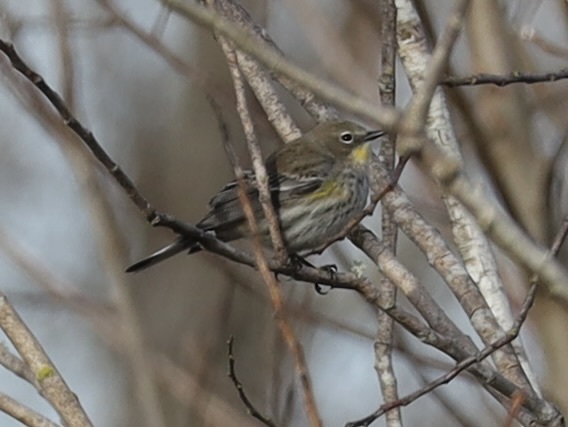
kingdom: Animalia
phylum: Chordata
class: Aves
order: Passeriformes
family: Parulidae
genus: Setophaga
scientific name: Setophaga coronata
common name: Myrtle warbler
